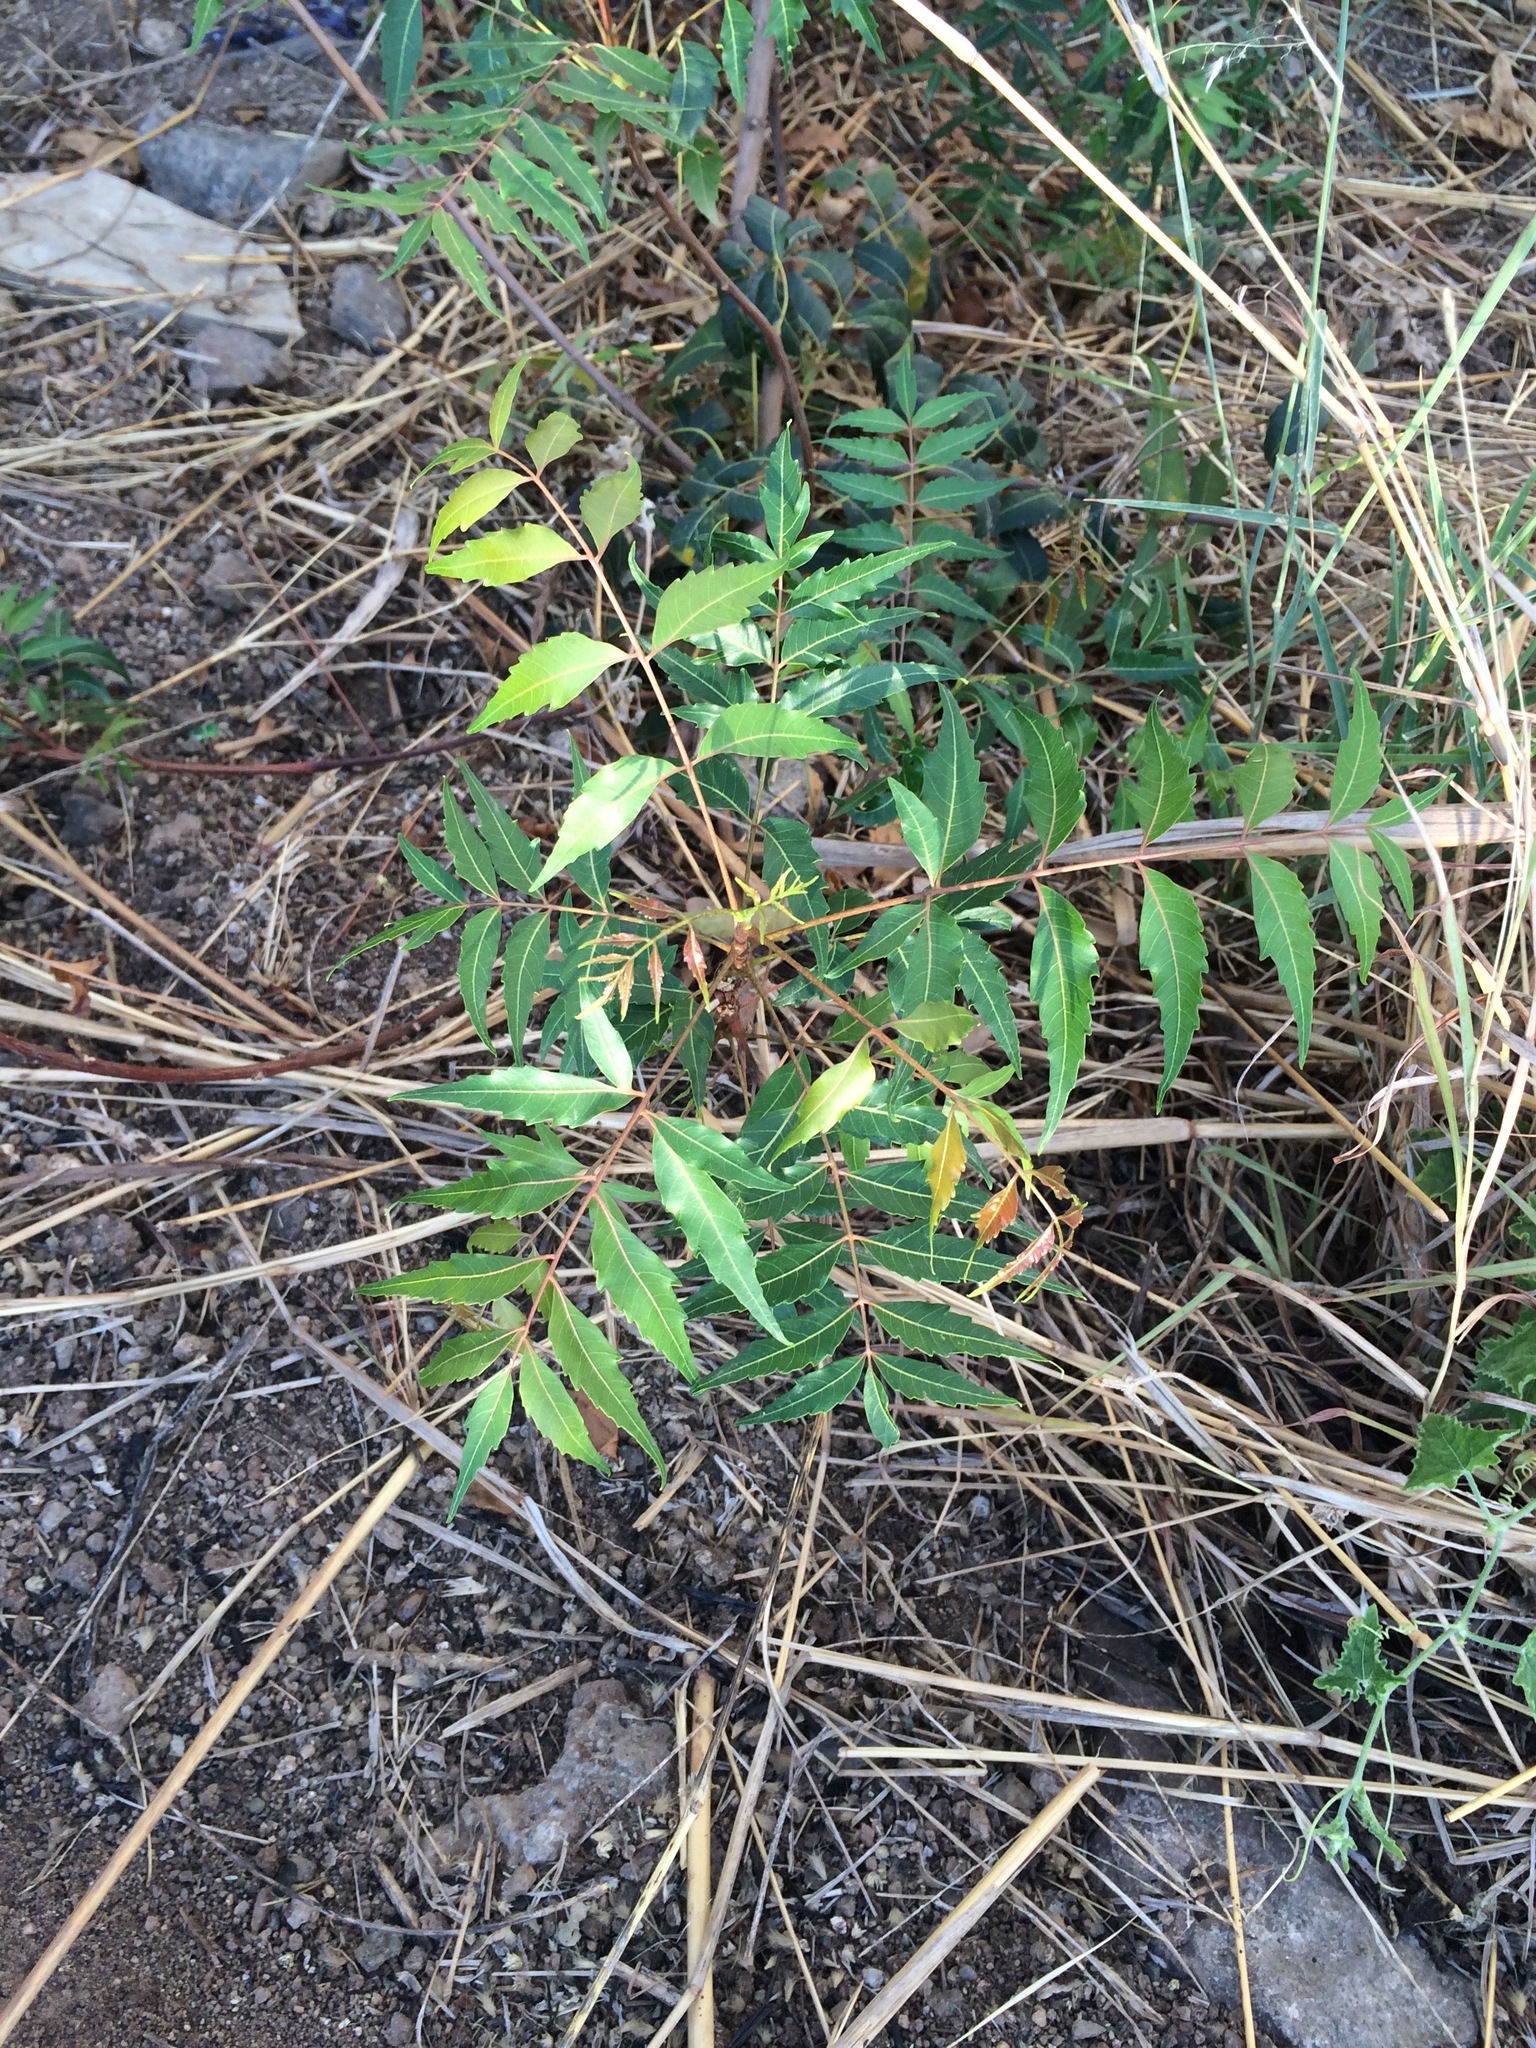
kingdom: Plantae
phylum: Tracheophyta
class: Magnoliopsida
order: Sapindales
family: Meliaceae
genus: Azadirachta
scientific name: Azadirachta indica
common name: Neem
